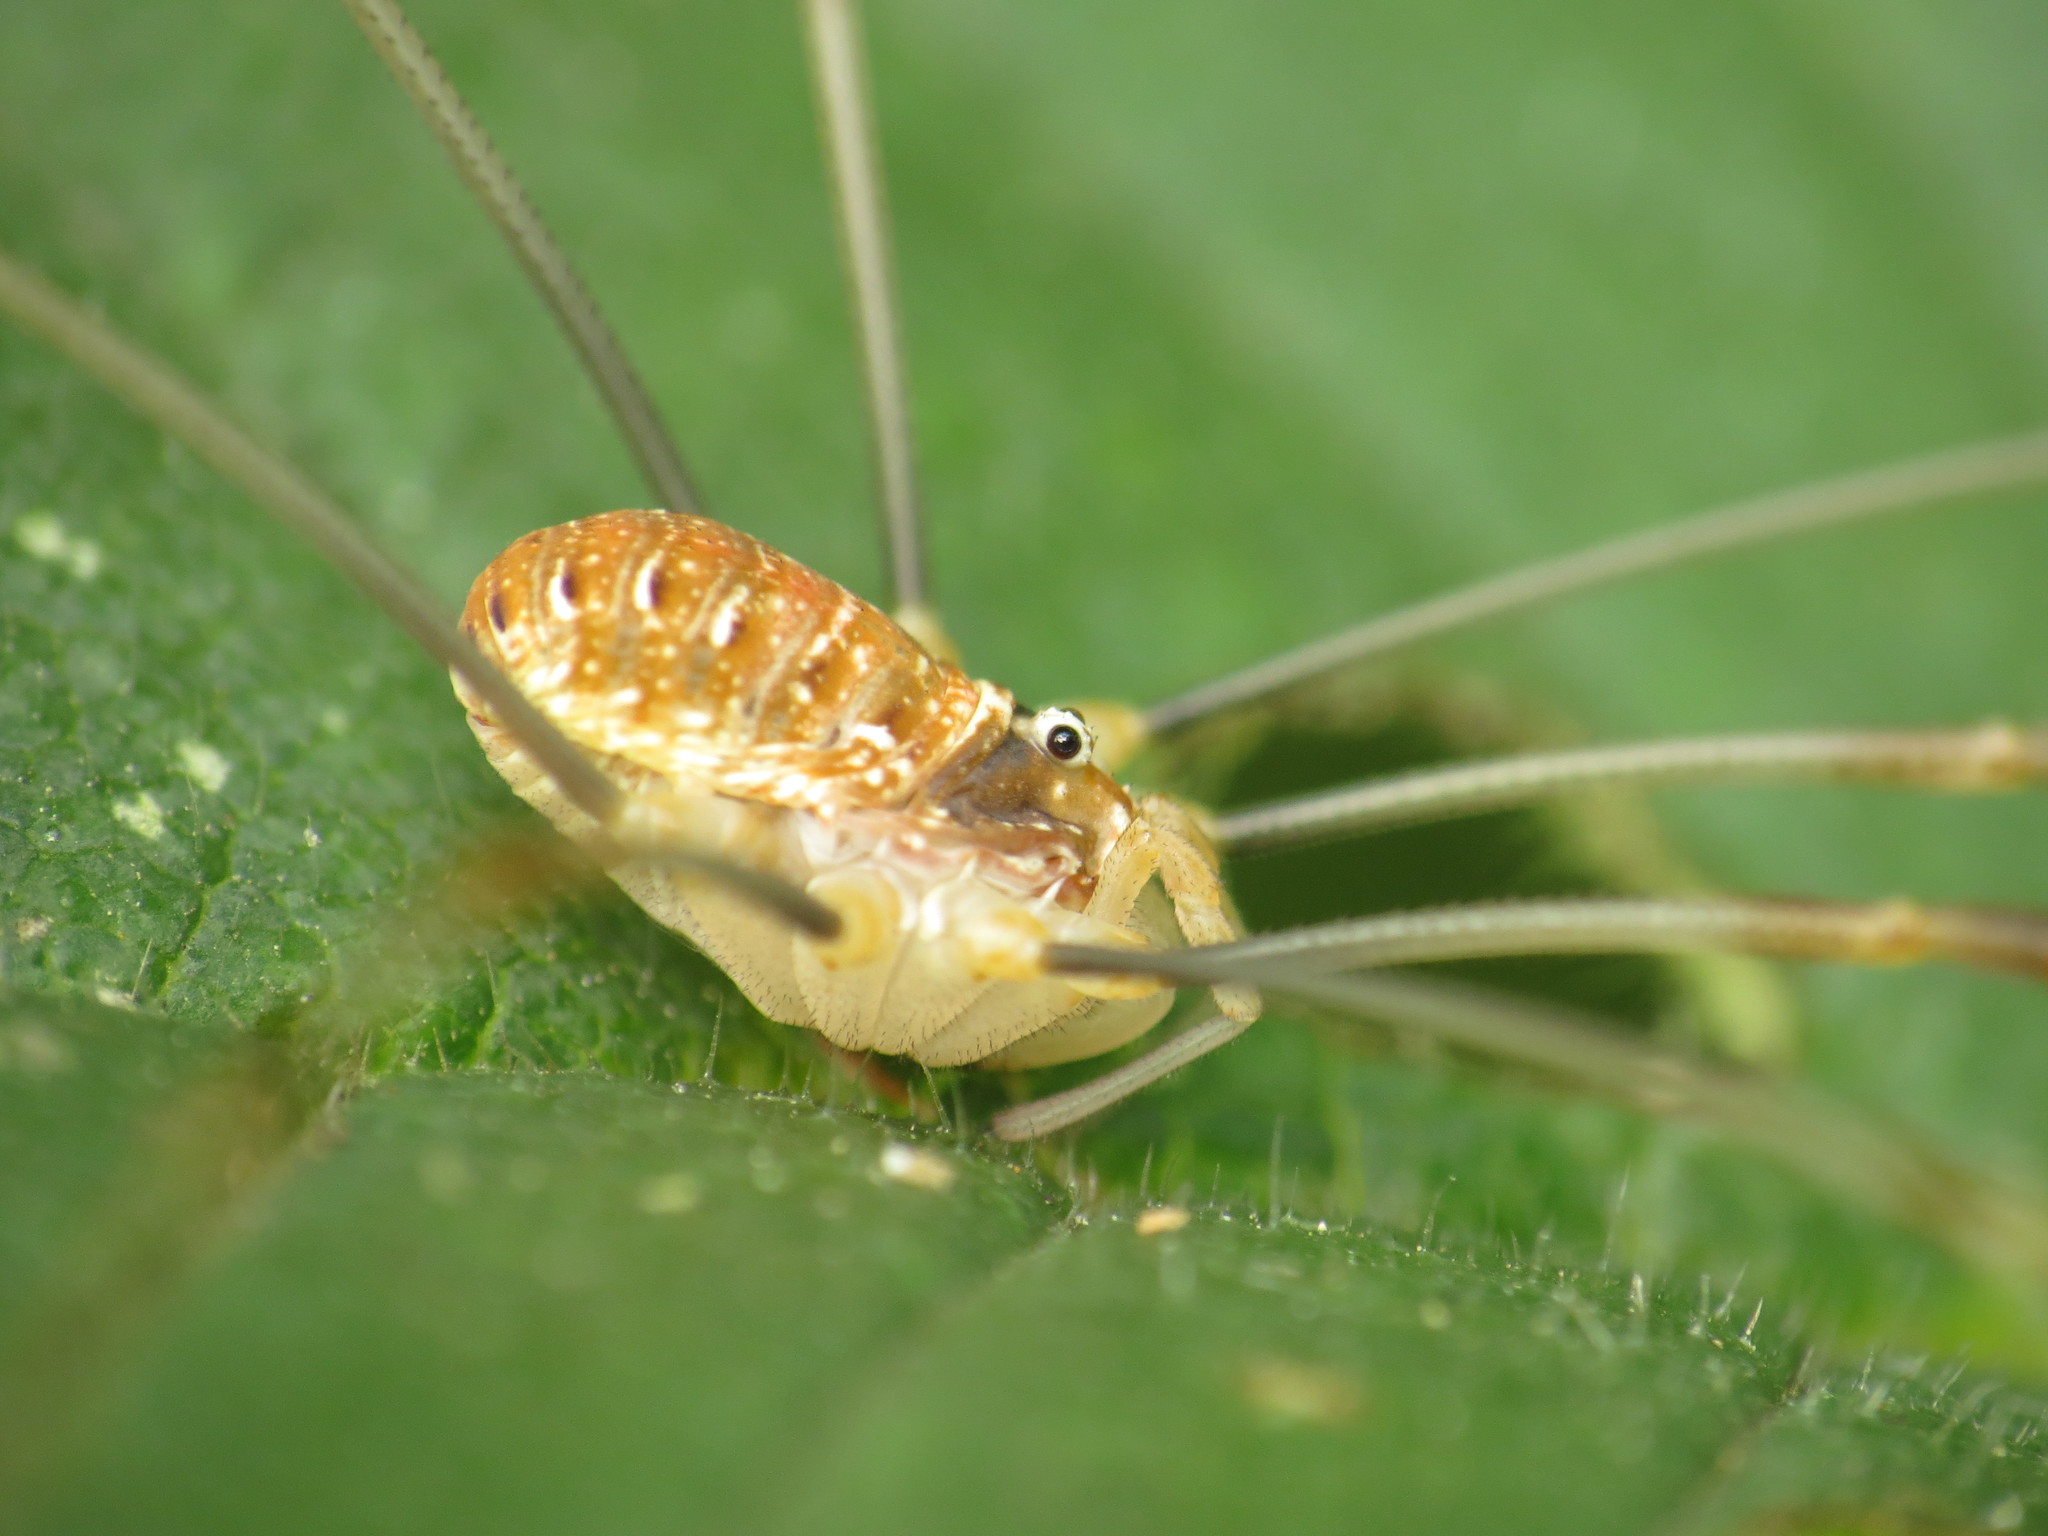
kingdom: Animalia
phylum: Arthropoda
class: Arachnida
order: Opiliones
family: Phalangiidae
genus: Opilio
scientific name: Opilio canestrinii
